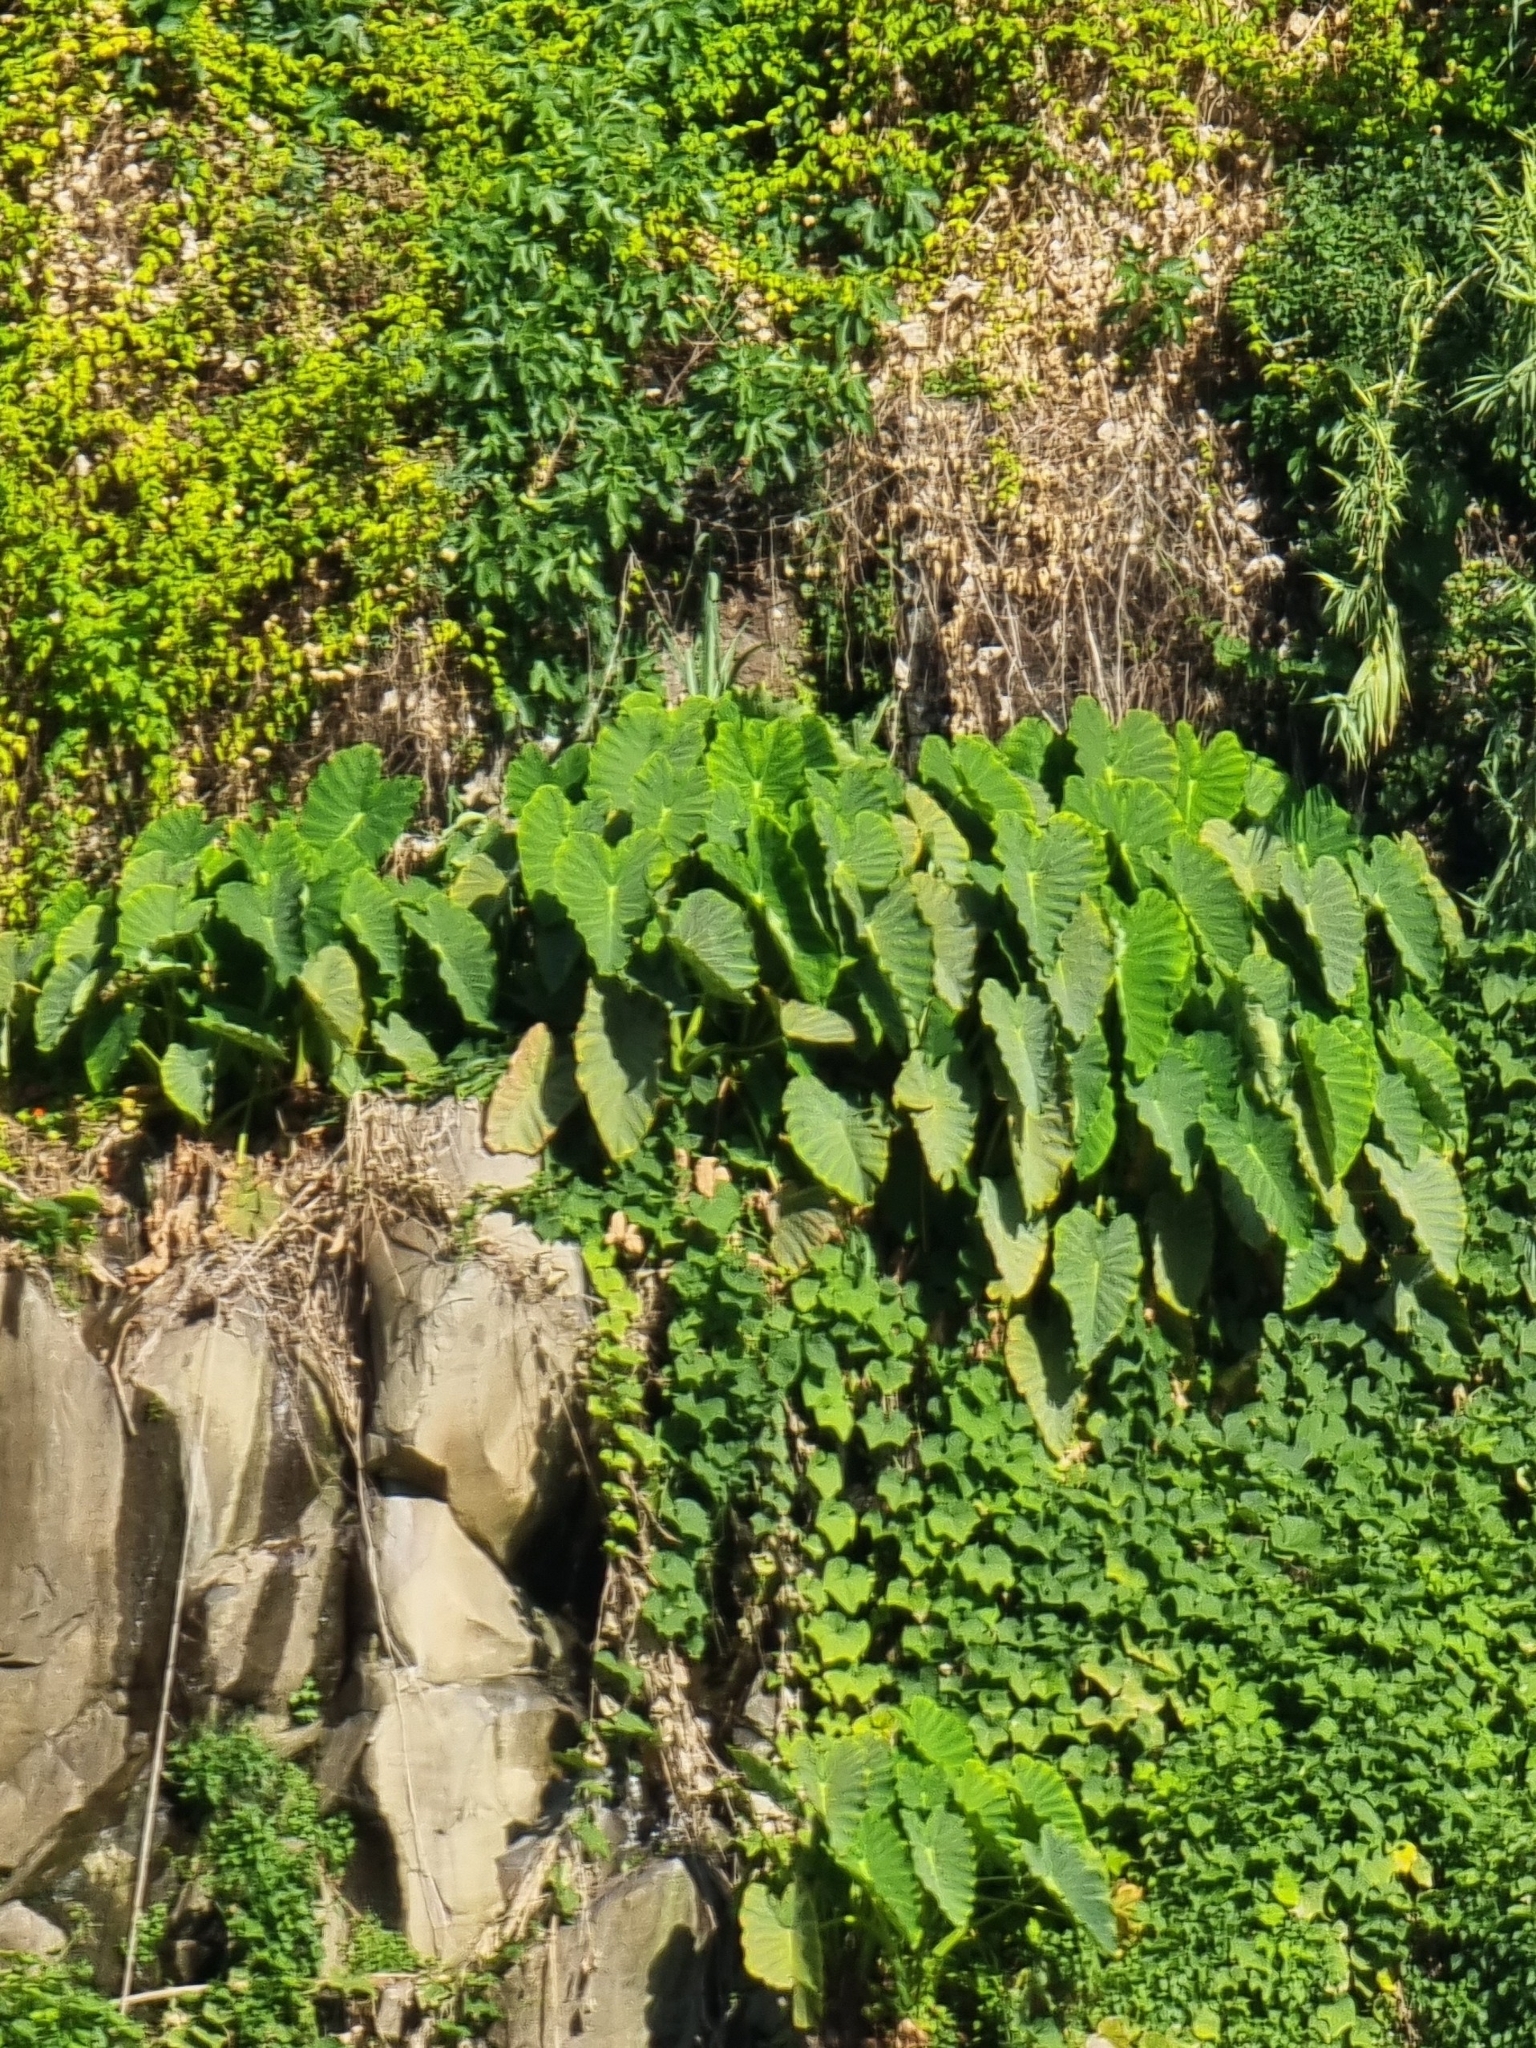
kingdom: Plantae
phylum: Tracheophyta
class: Liliopsida
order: Alismatales
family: Araceae
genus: Colocasia
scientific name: Colocasia esculenta
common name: Taro
